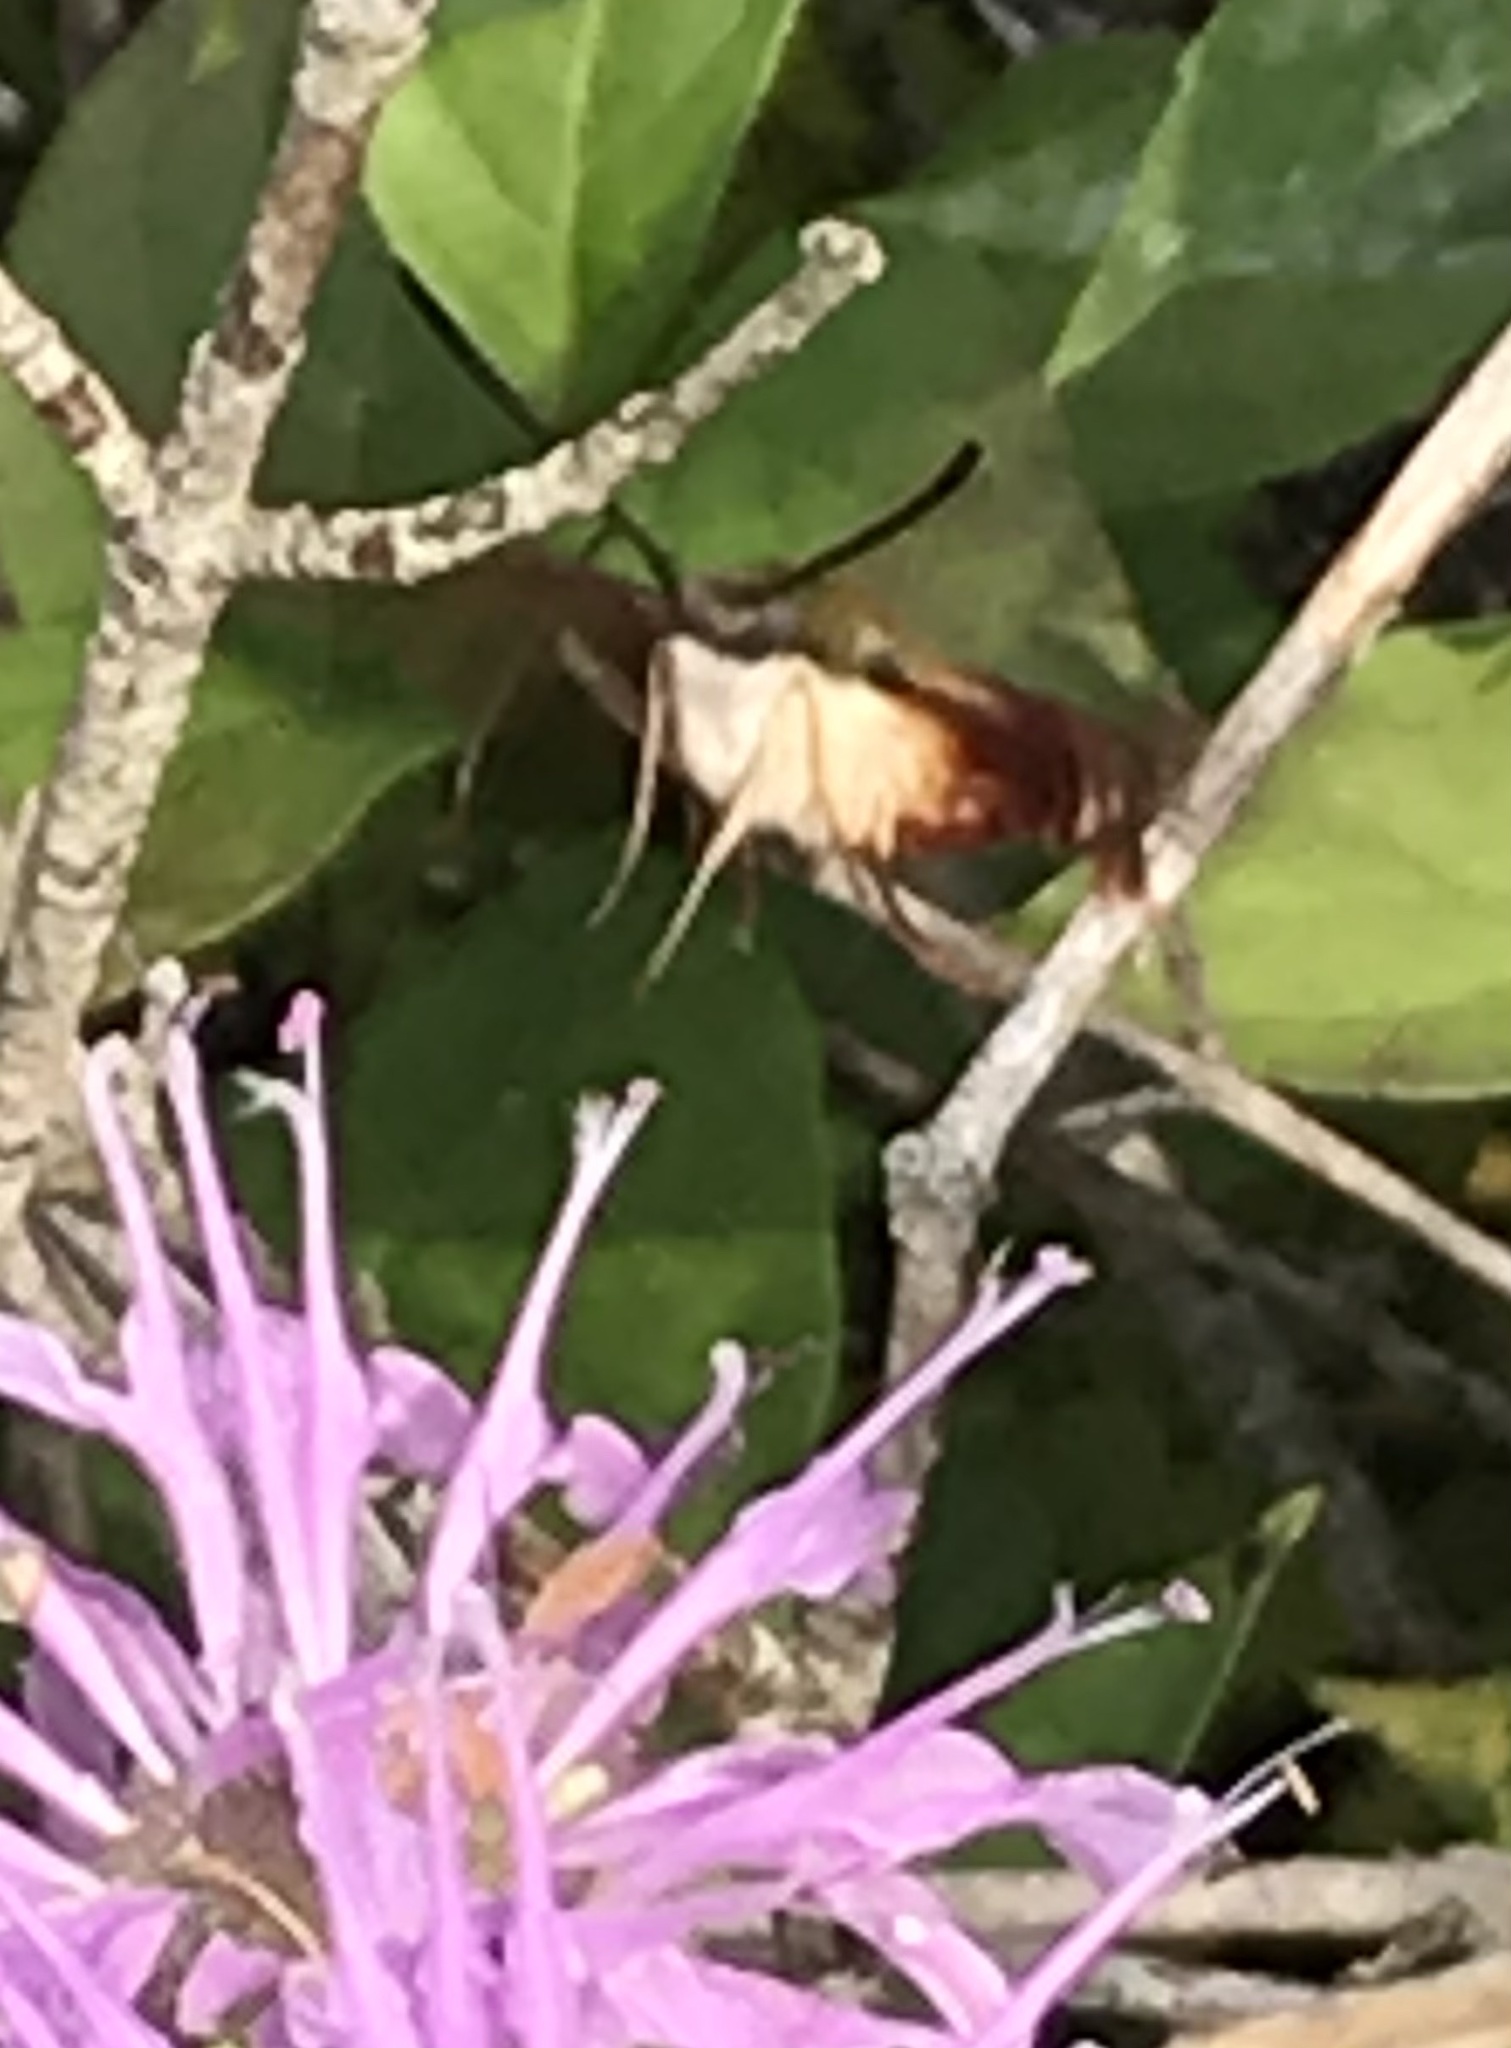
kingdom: Animalia
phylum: Arthropoda
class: Insecta
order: Lepidoptera
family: Sphingidae
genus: Hemaris
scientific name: Hemaris thysbe
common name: Common clear-wing
